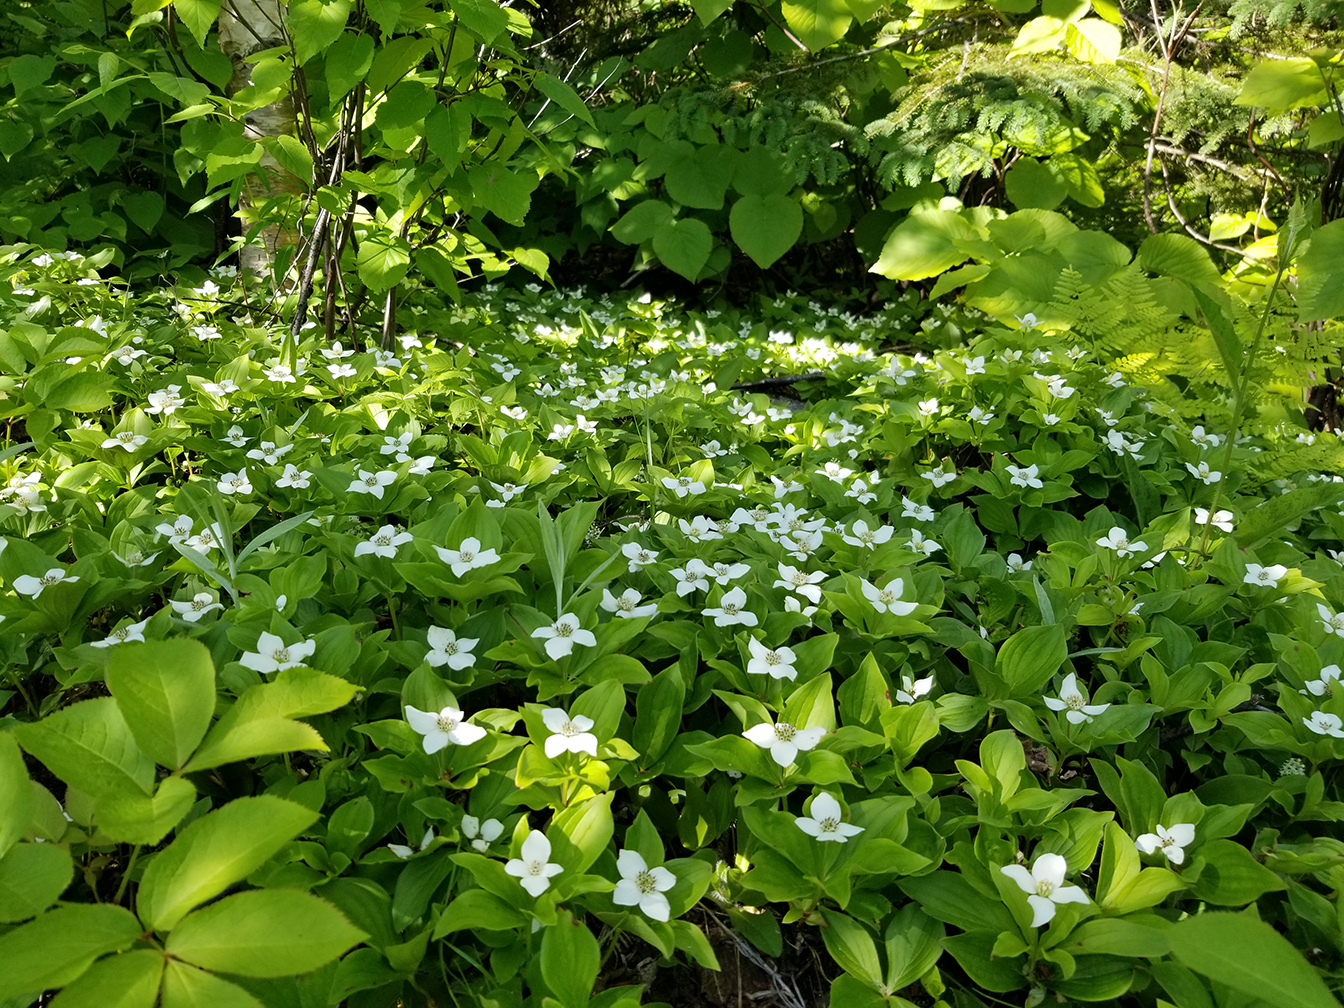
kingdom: Plantae
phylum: Tracheophyta
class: Magnoliopsida
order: Cornales
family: Cornaceae
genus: Cornus
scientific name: Cornus canadensis
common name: Creeping dogwood
